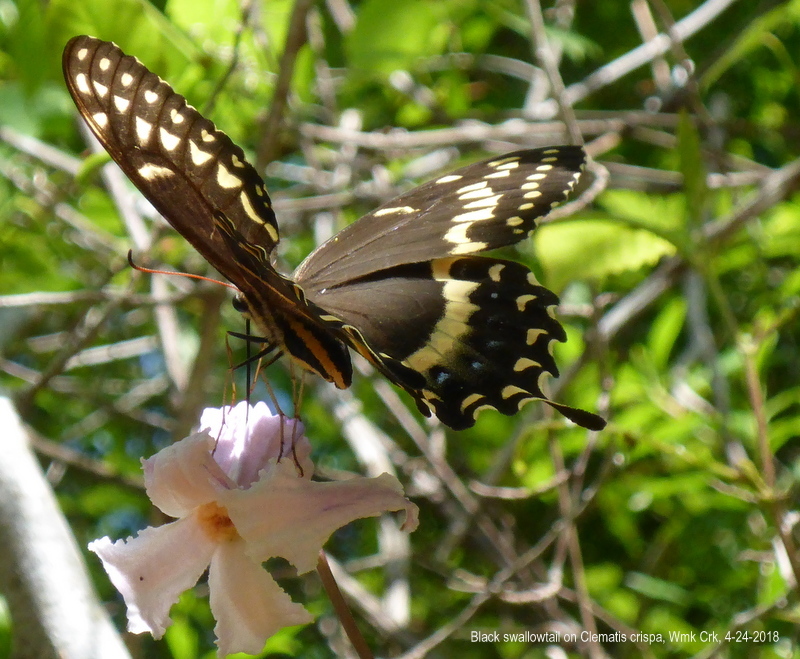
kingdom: Animalia
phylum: Arthropoda
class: Insecta
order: Lepidoptera
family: Papilionidae
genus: Papilio
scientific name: Papilio palamedes
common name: Palamedes swallowtail
